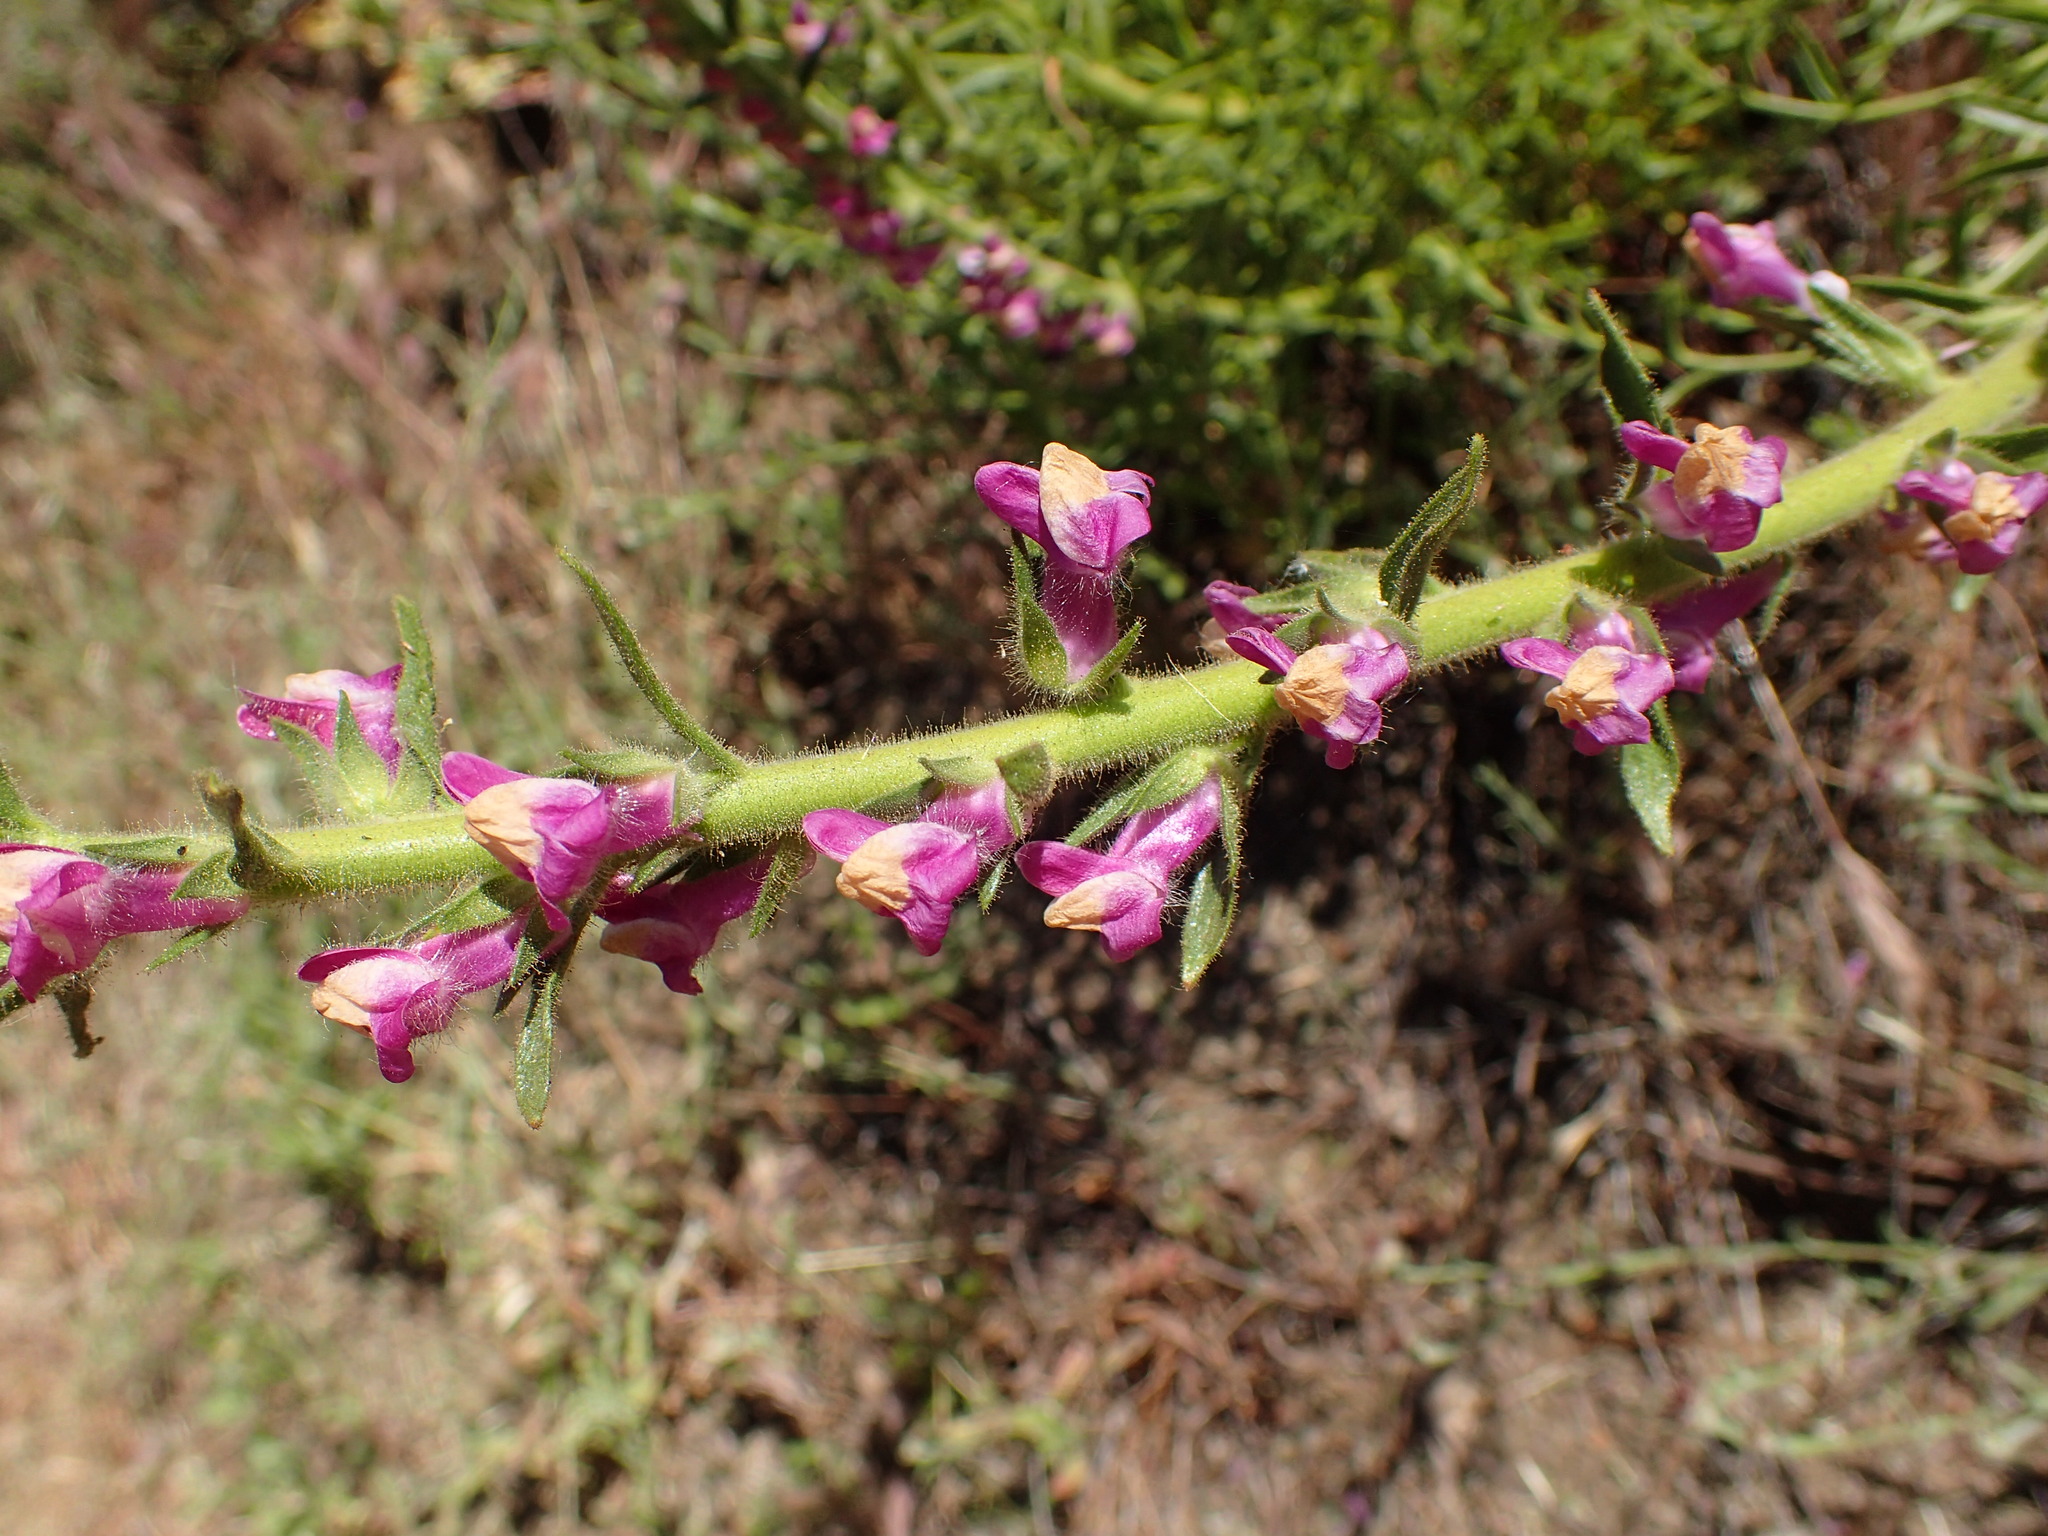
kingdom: Plantae
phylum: Tracheophyta
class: Magnoliopsida
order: Lamiales
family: Plantaginaceae
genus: Sairocarpus
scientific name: Sairocarpus multiflorus
